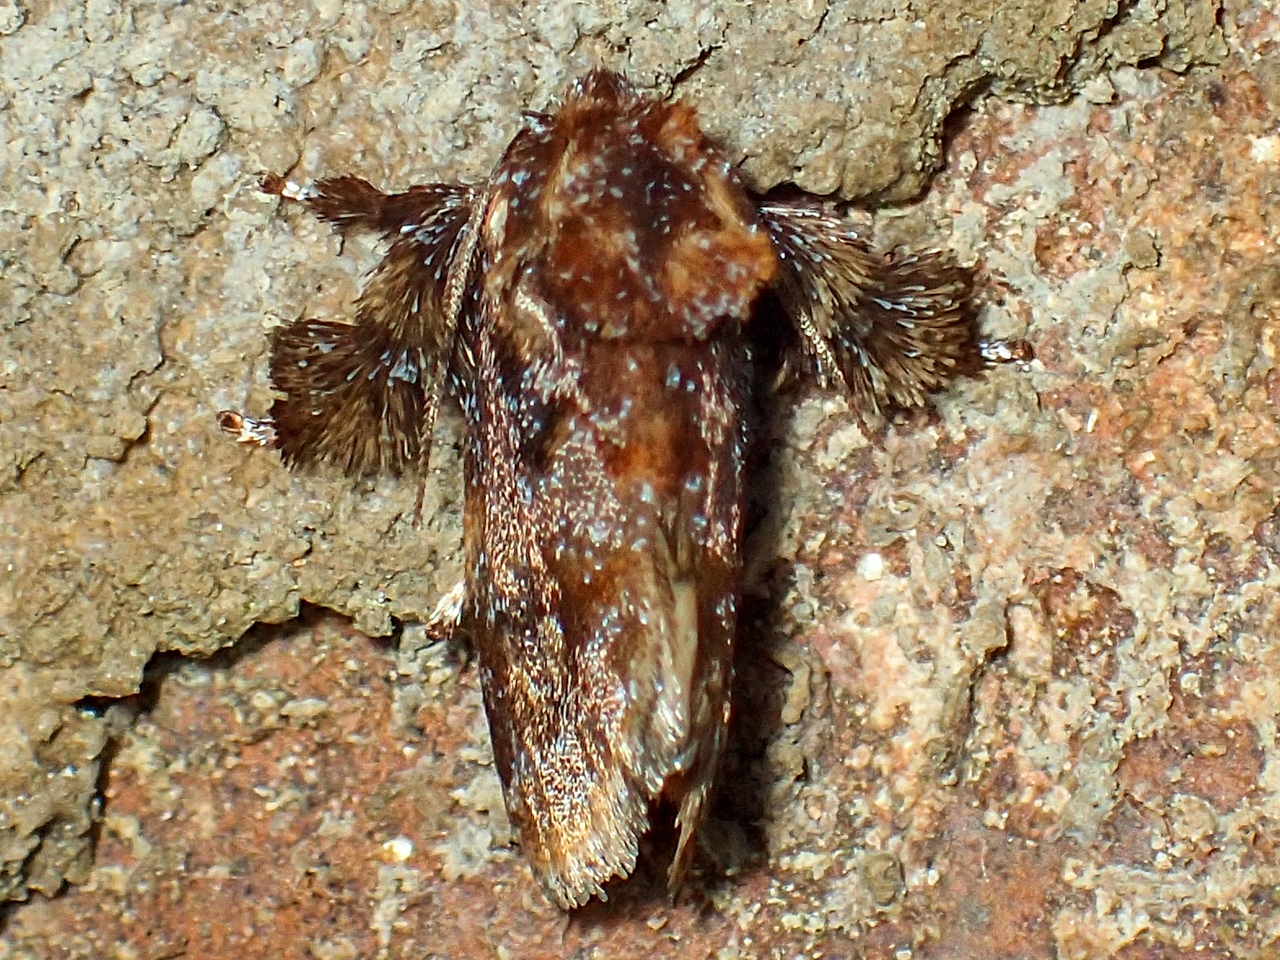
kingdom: Animalia
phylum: Arthropoda
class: Insecta
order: Lepidoptera
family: Limacodidae
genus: Isochaetes
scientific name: Isochaetes beutenmuelleri
